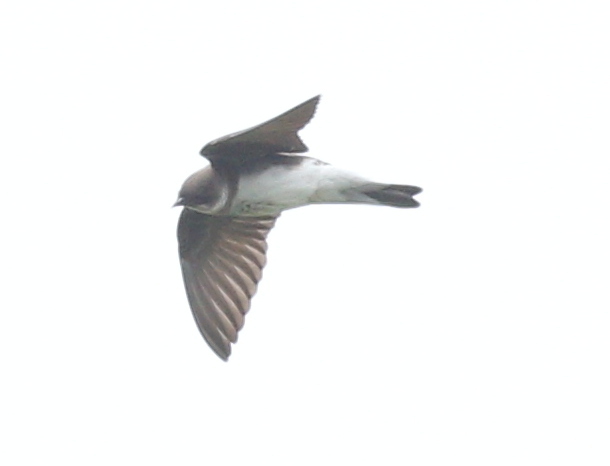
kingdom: Animalia
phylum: Chordata
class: Aves
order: Passeriformes
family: Hirundinidae
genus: Progne
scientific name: Progne tapera
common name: Brown-chested martin
